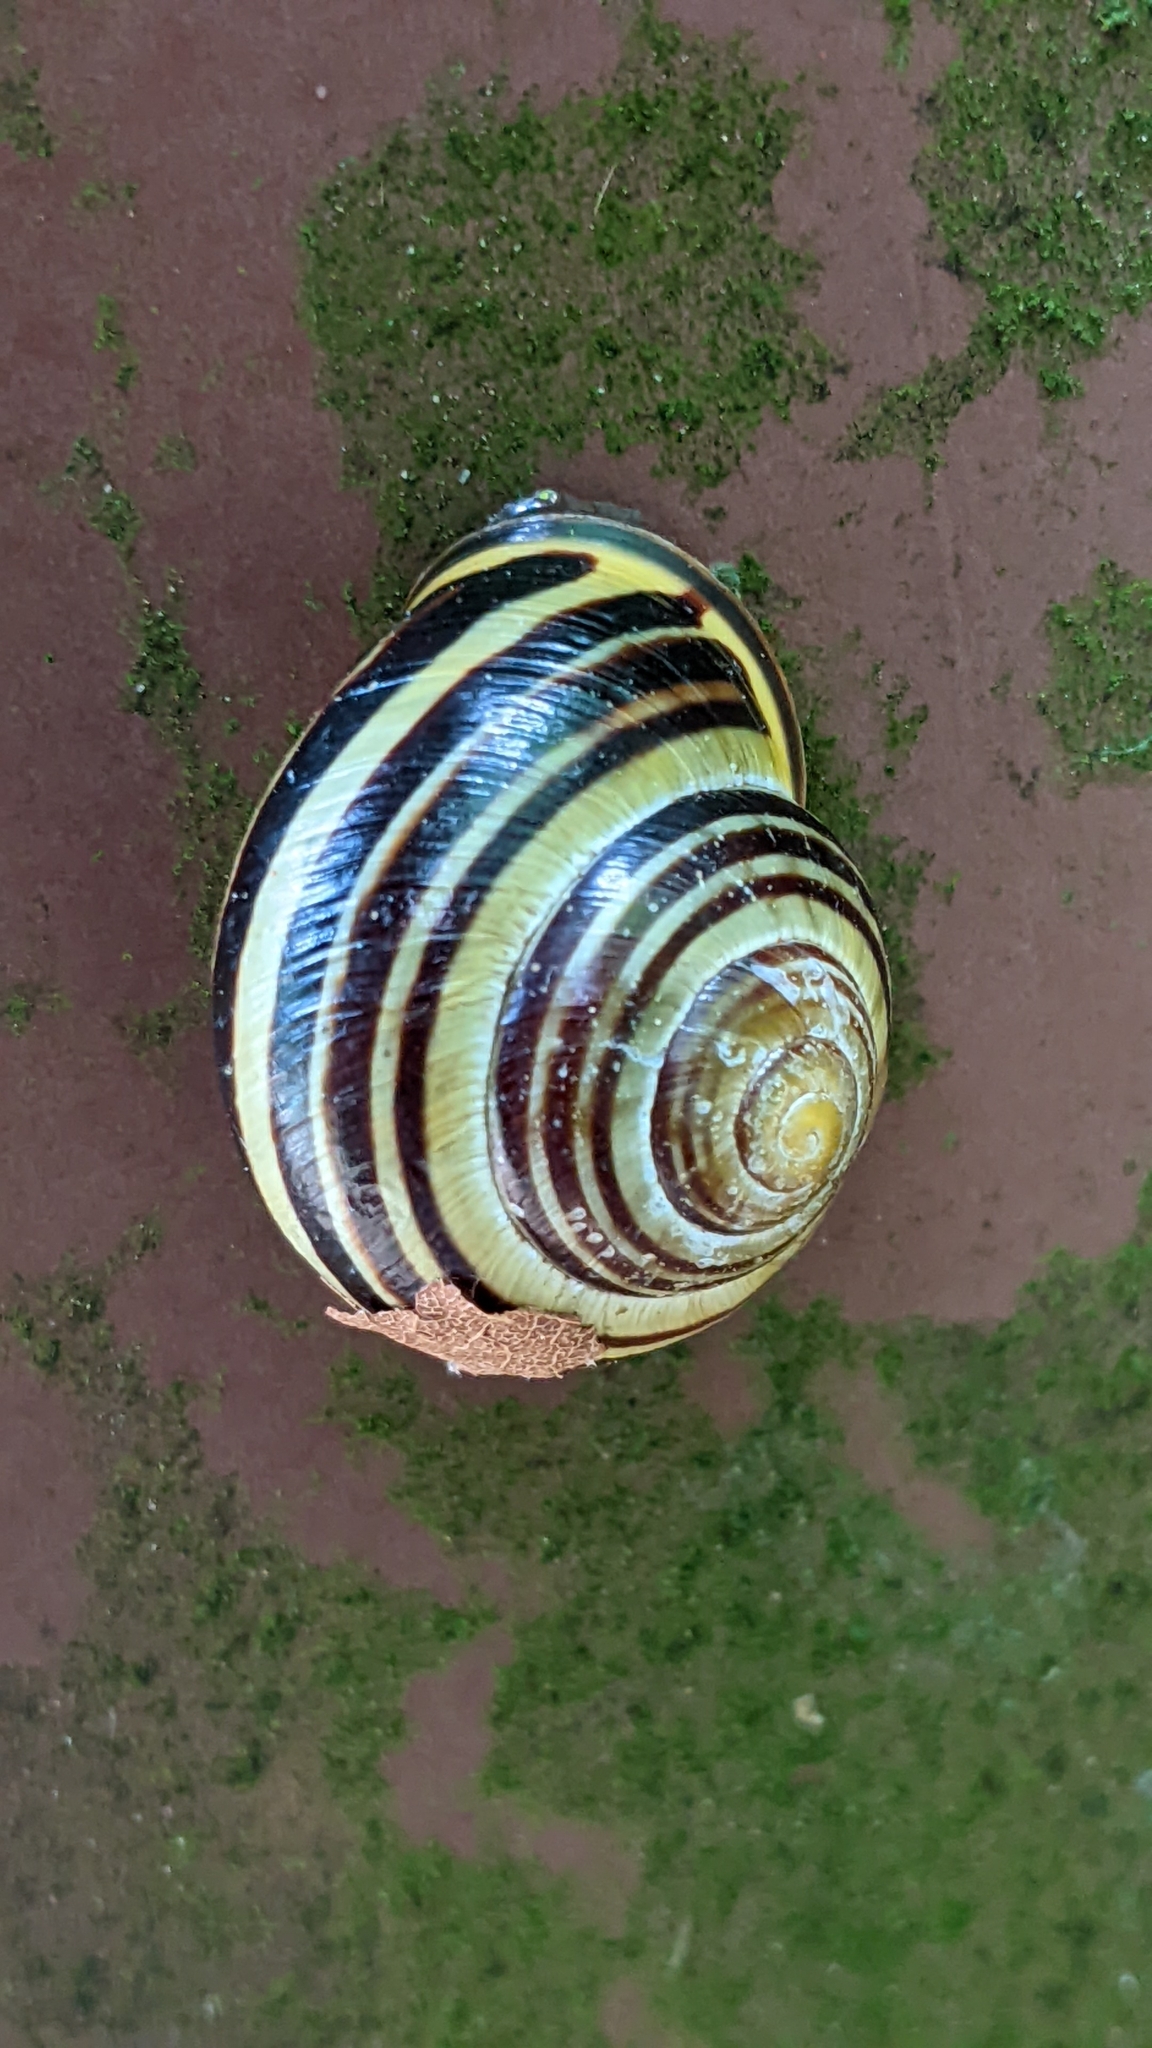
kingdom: Animalia
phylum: Mollusca
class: Gastropoda
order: Stylommatophora
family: Helicidae
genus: Cepaea
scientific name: Cepaea nemoralis
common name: Grovesnail
